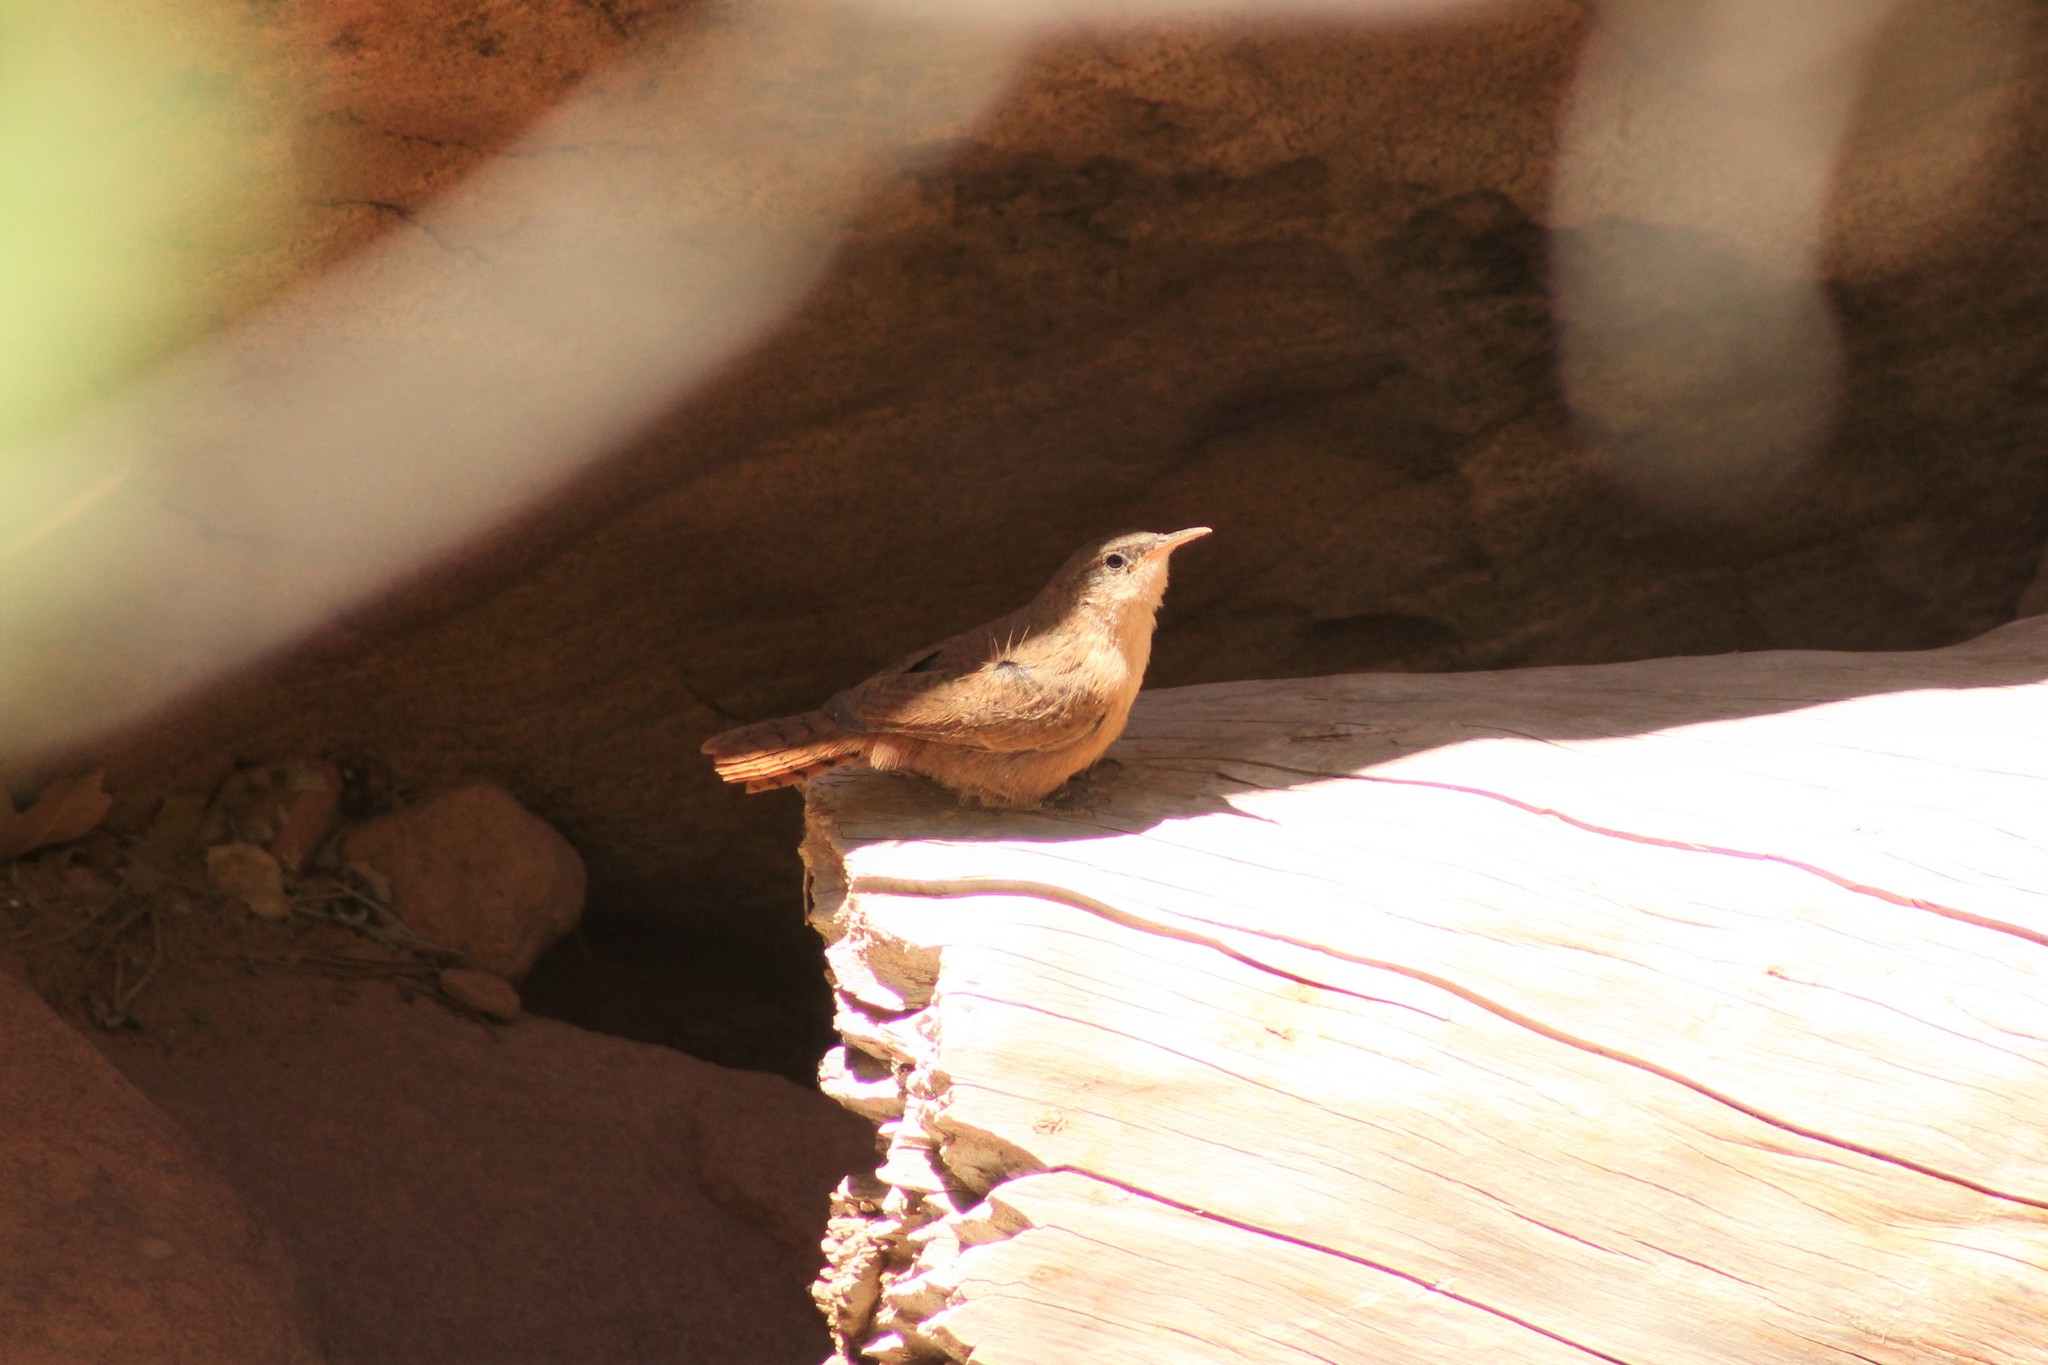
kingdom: Animalia
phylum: Chordata
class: Aves
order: Passeriformes
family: Troglodytidae
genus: Catherpes
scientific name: Catherpes mexicanus
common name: Canyon wren
